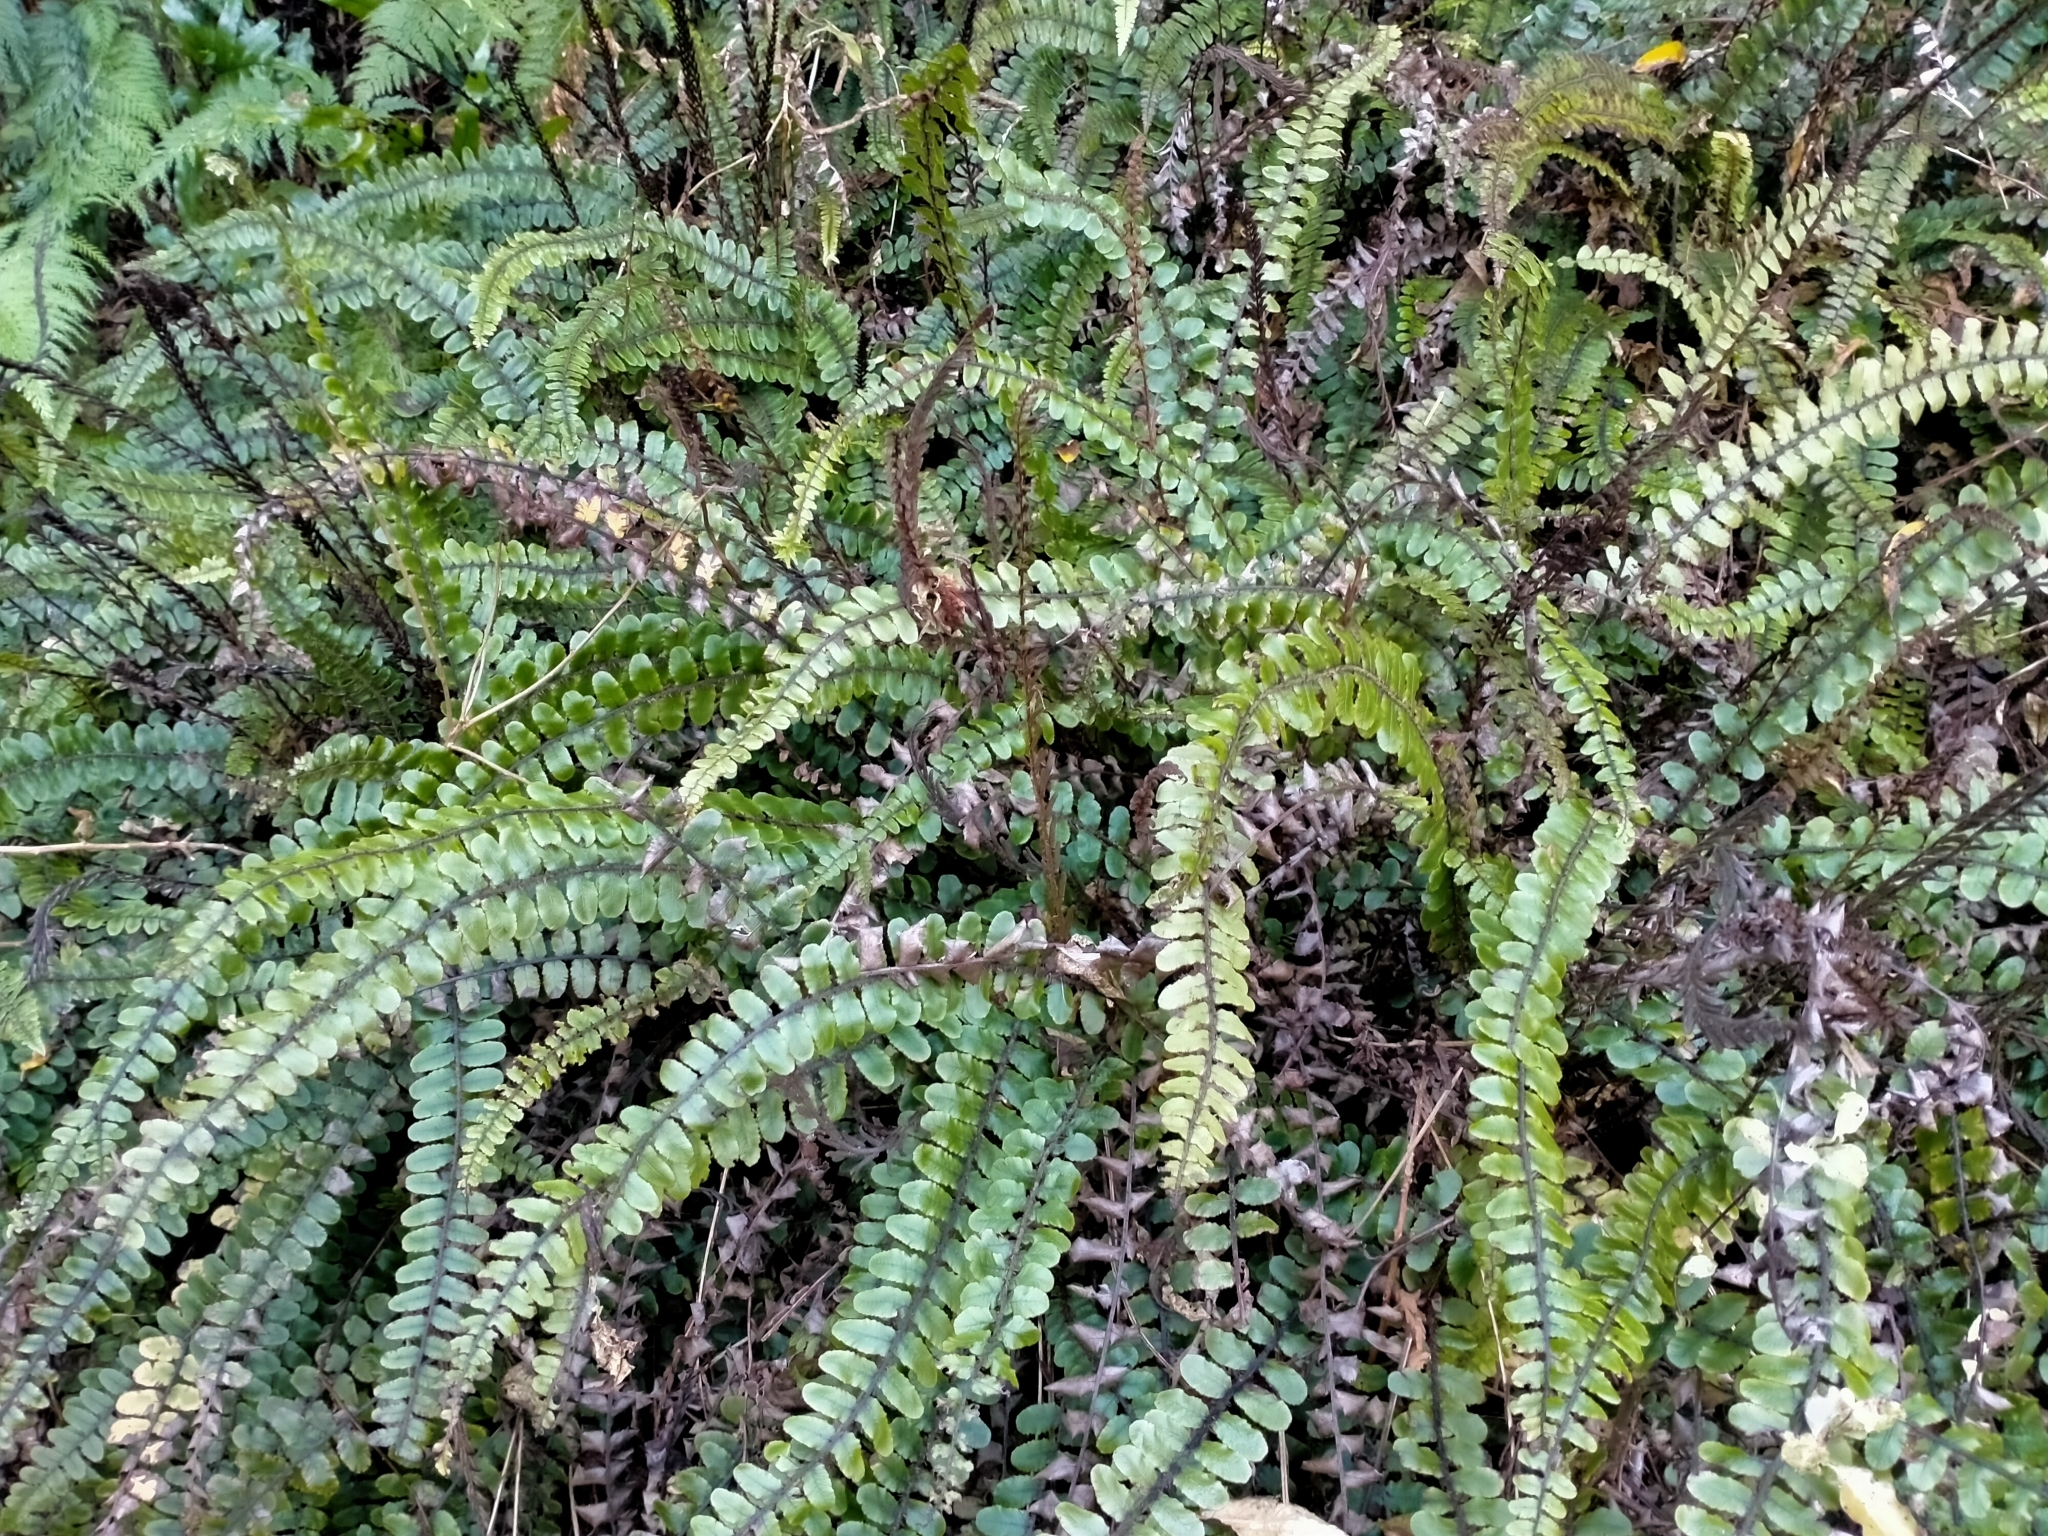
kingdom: Plantae
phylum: Tracheophyta
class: Polypodiopsida
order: Polypodiales
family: Blechnaceae
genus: Cranfillia
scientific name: Cranfillia fluviatilis
